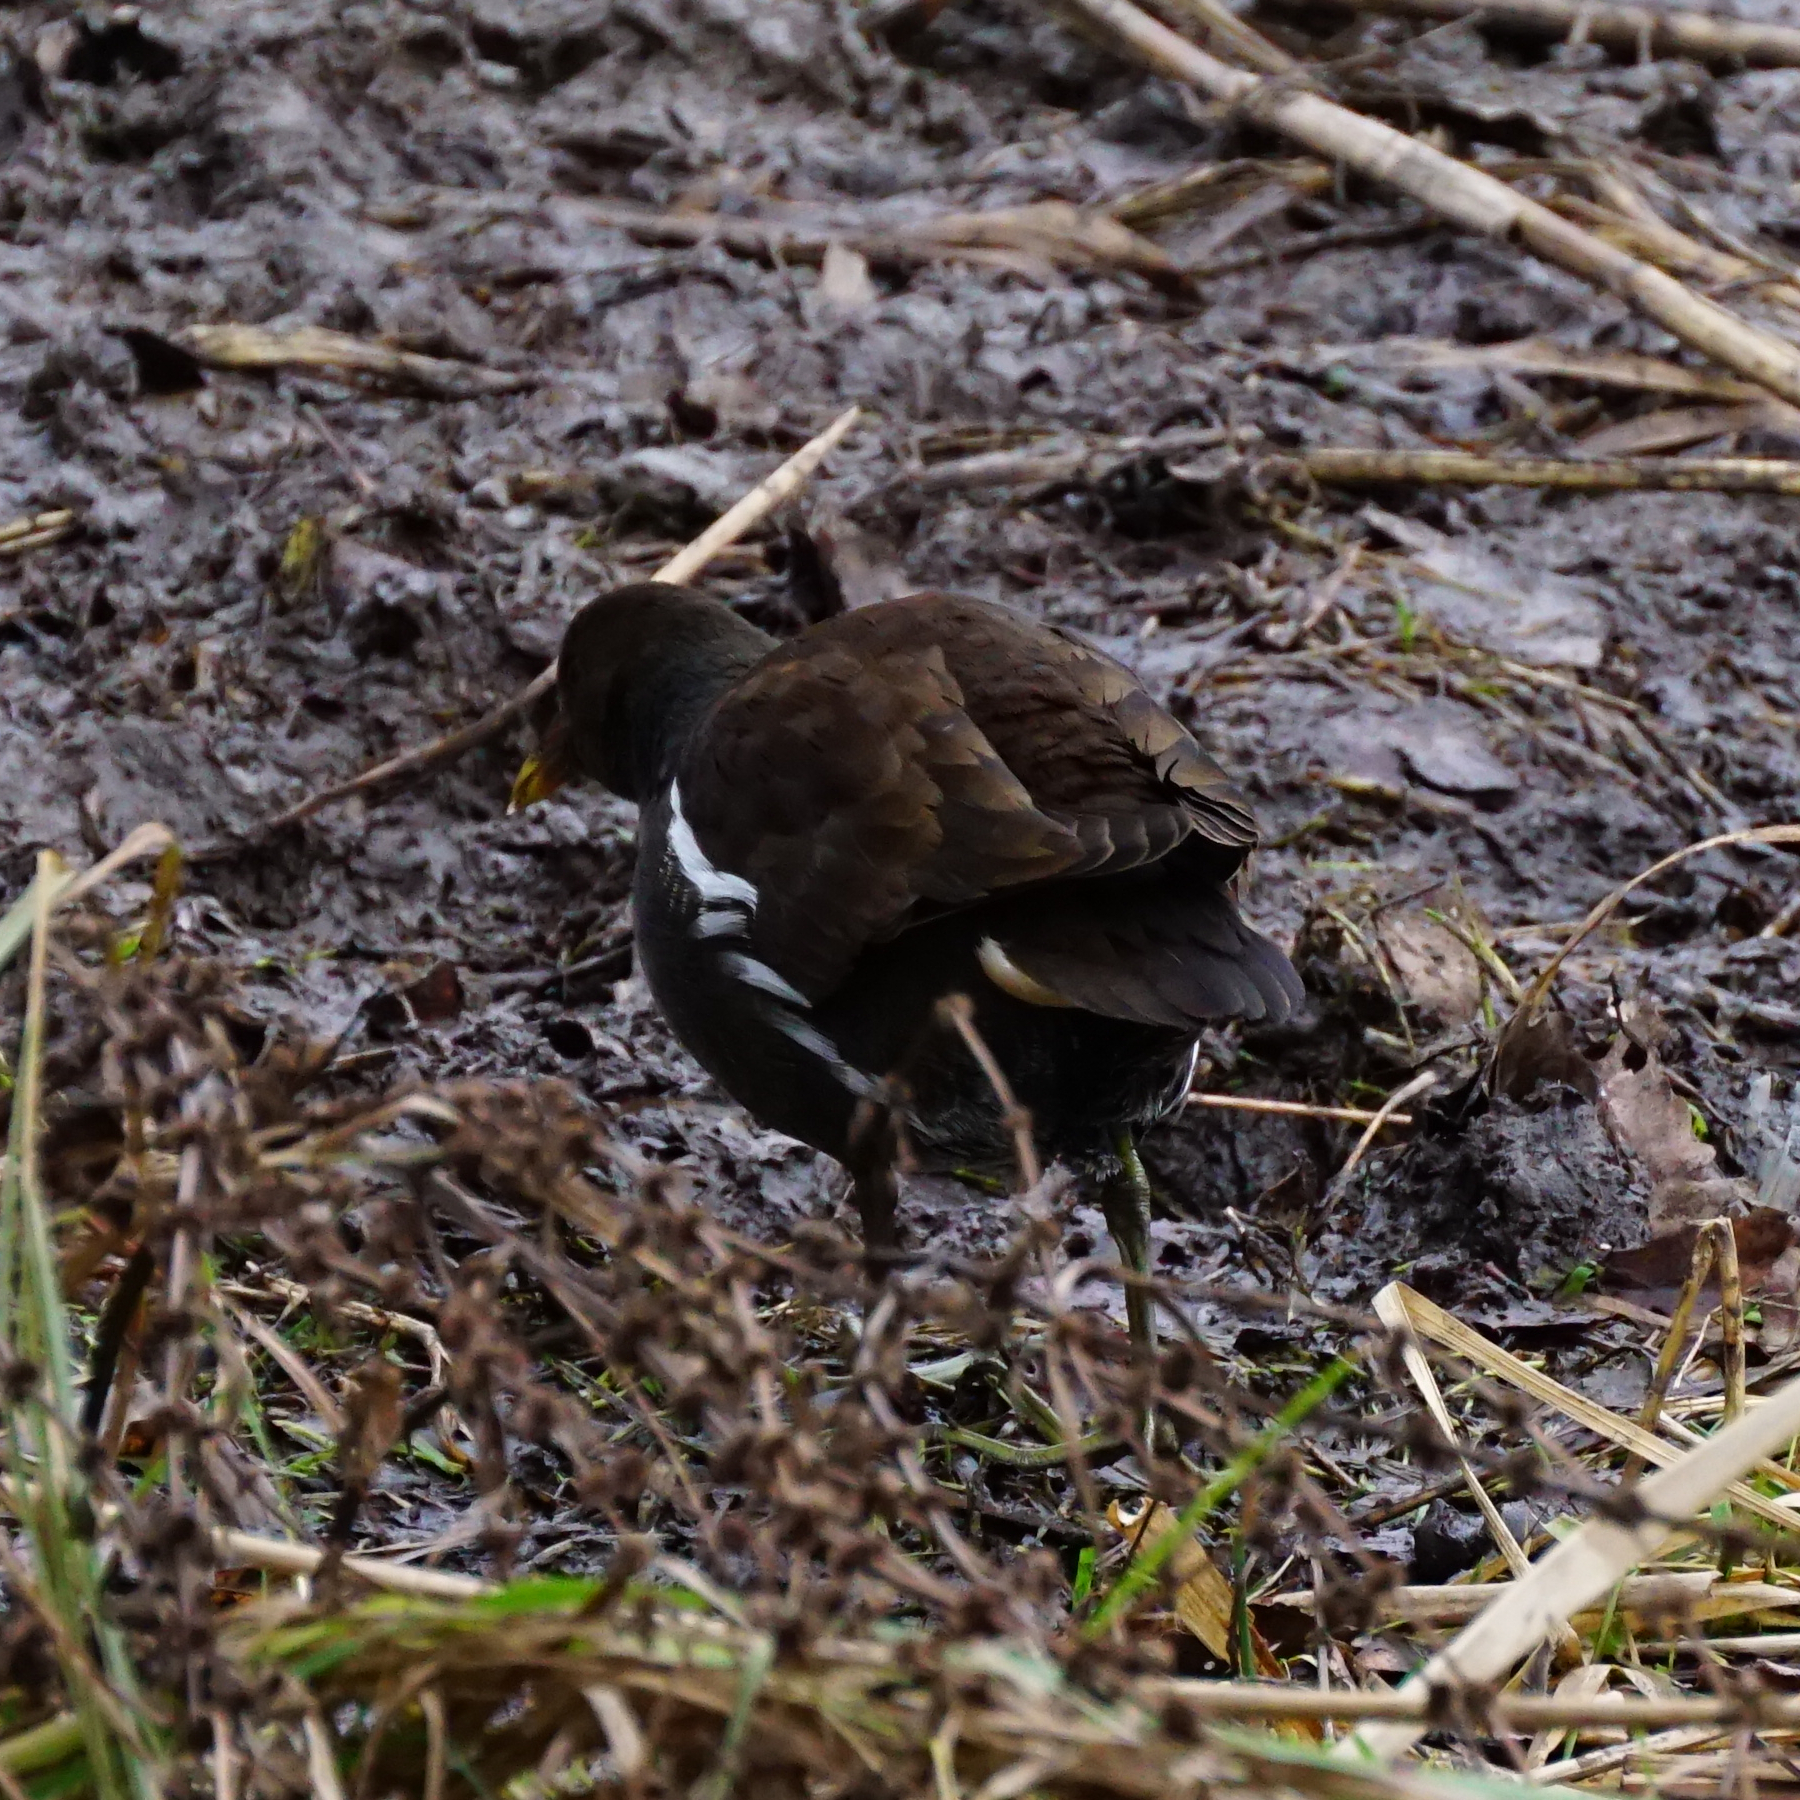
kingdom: Animalia
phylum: Chordata
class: Aves
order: Gruiformes
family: Rallidae
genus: Gallinula
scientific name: Gallinula chloropus
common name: Common moorhen
